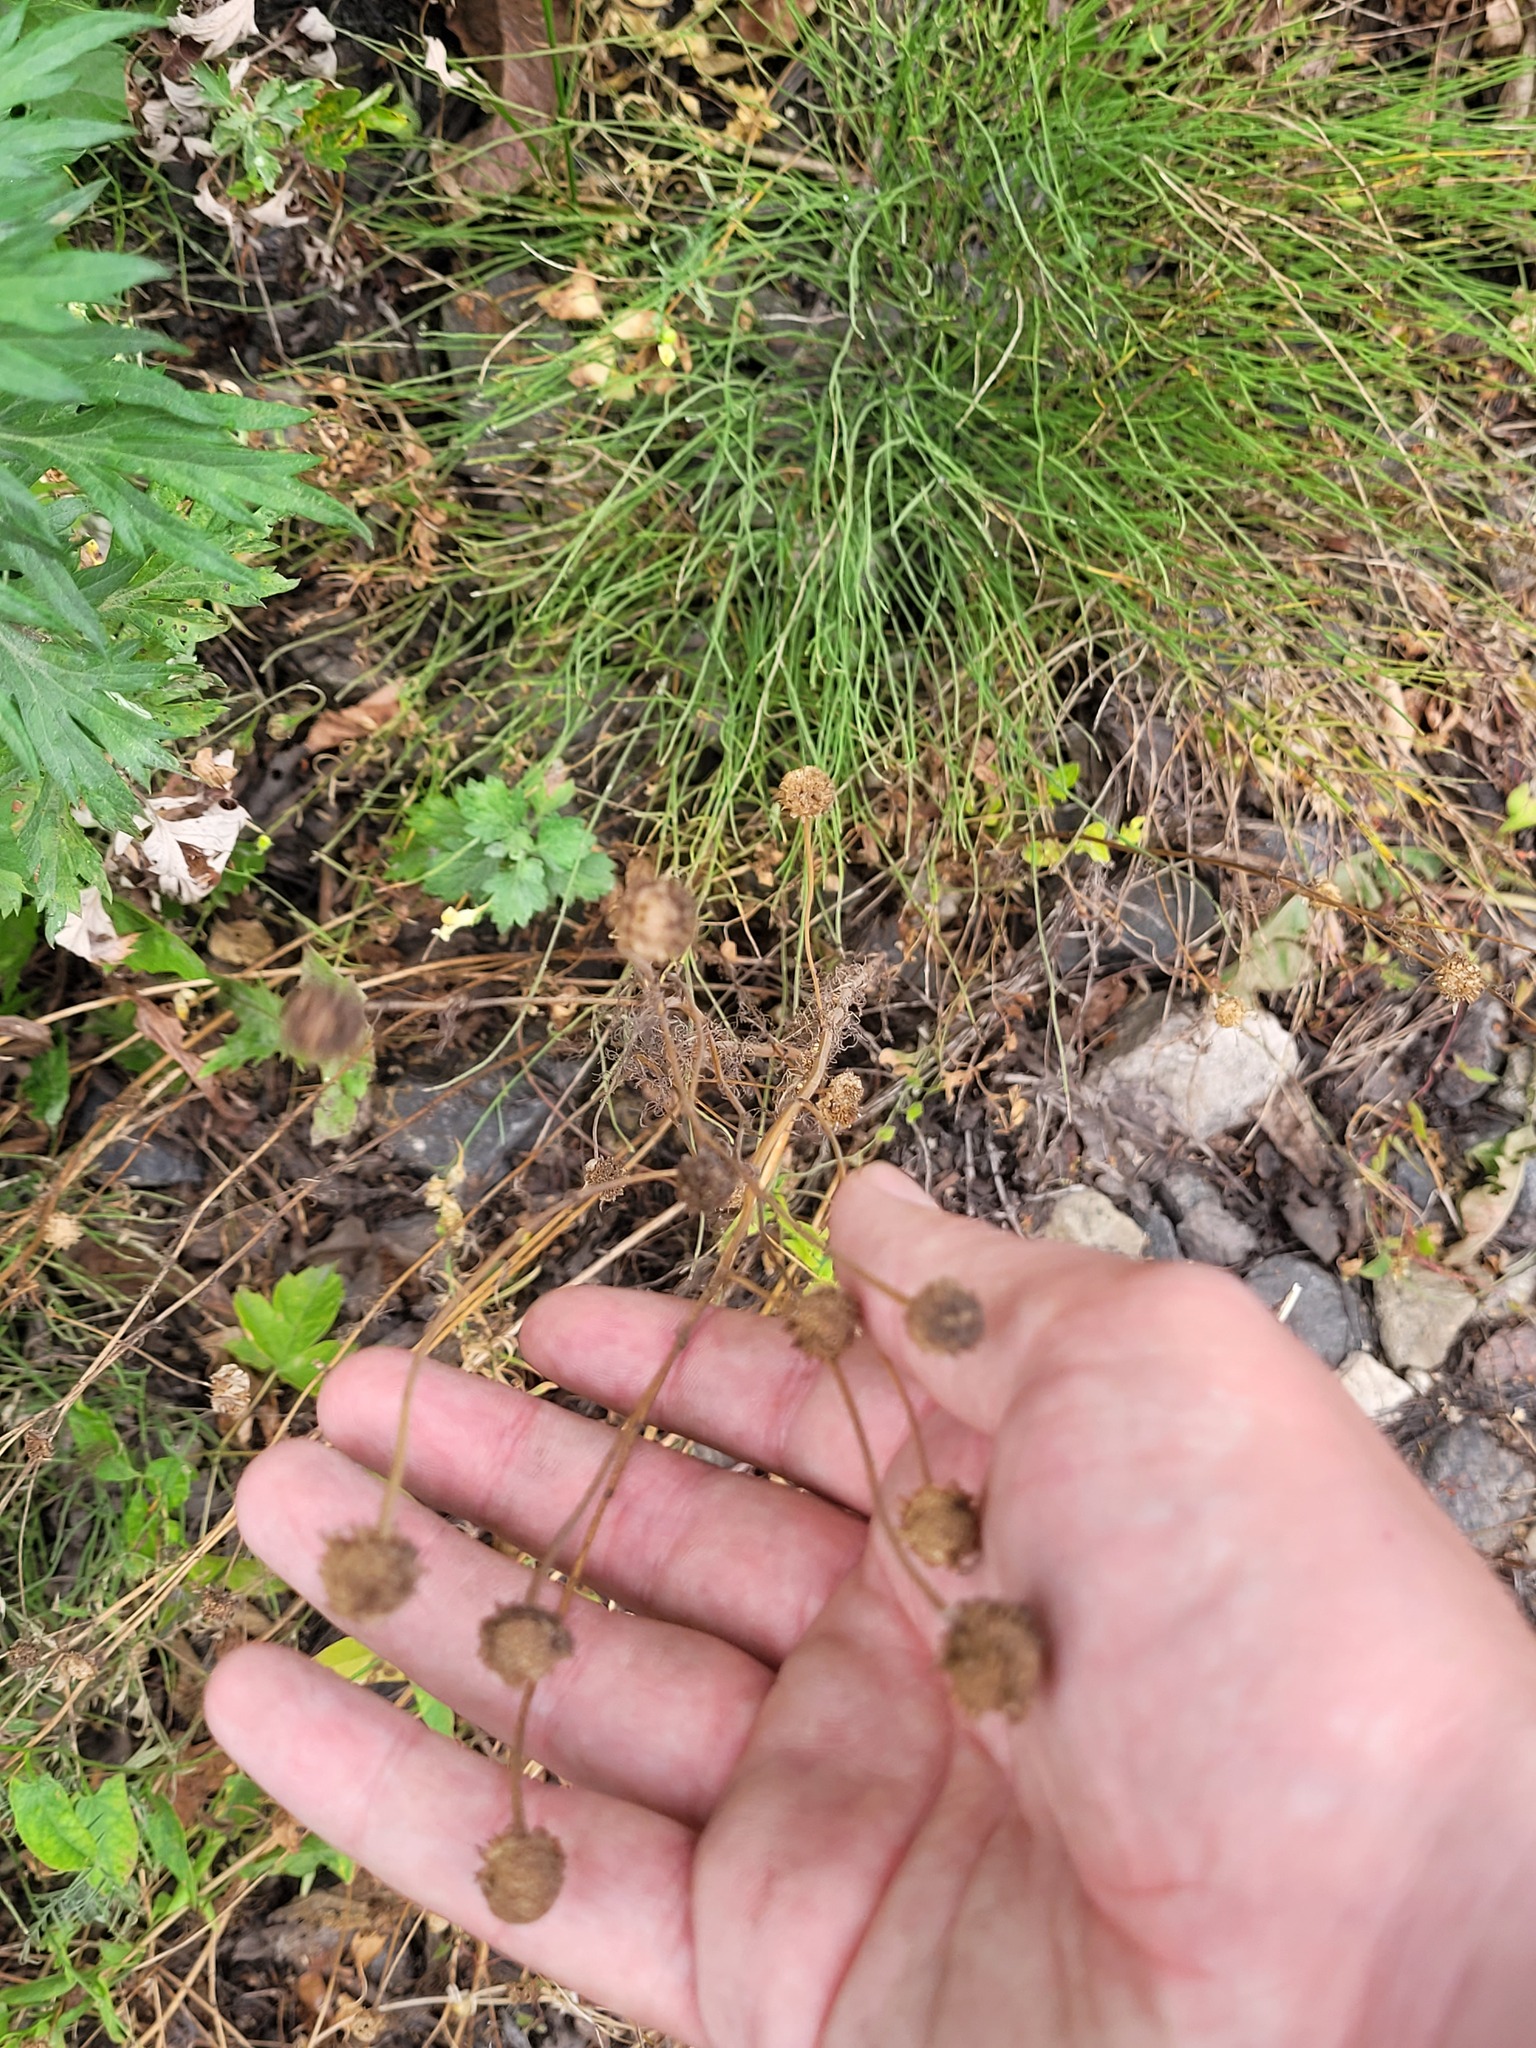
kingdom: Plantae
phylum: Tracheophyta
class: Magnoliopsida
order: Asterales
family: Asteraceae
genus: Tripleurospermum
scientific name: Tripleurospermum inodorum
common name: Scentless mayweed
